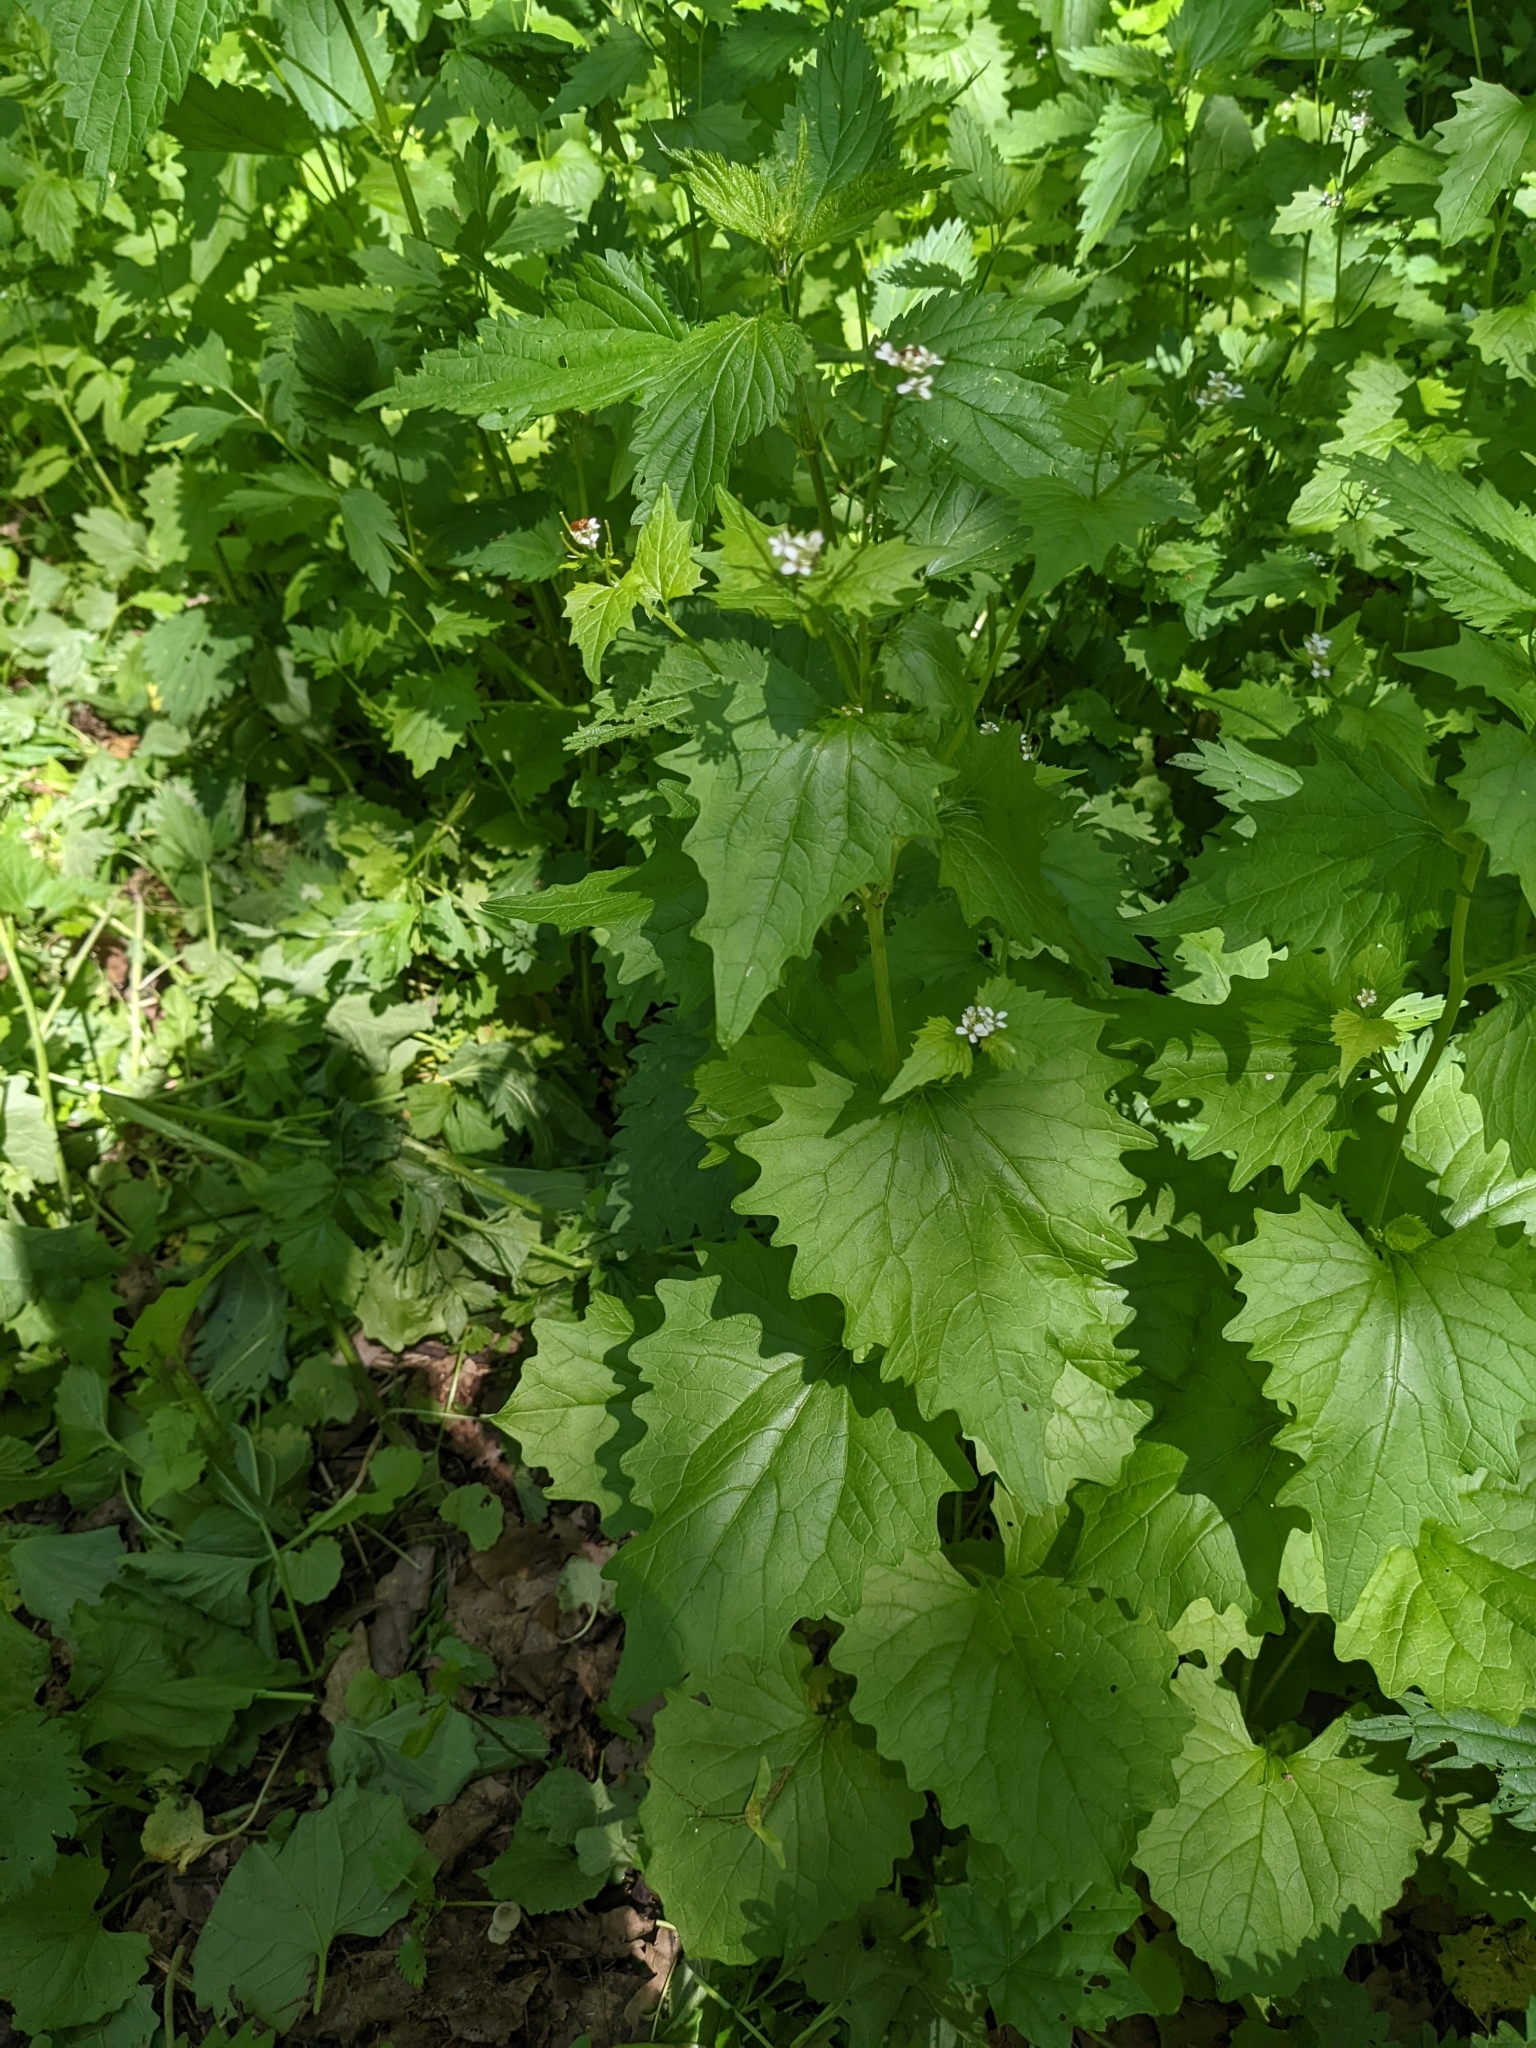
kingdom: Plantae
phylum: Tracheophyta
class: Magnoliopsida
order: Brassicales
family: Brassicaceae
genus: Alliaria
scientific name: Alliaria petiolata
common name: Garlic mustard
